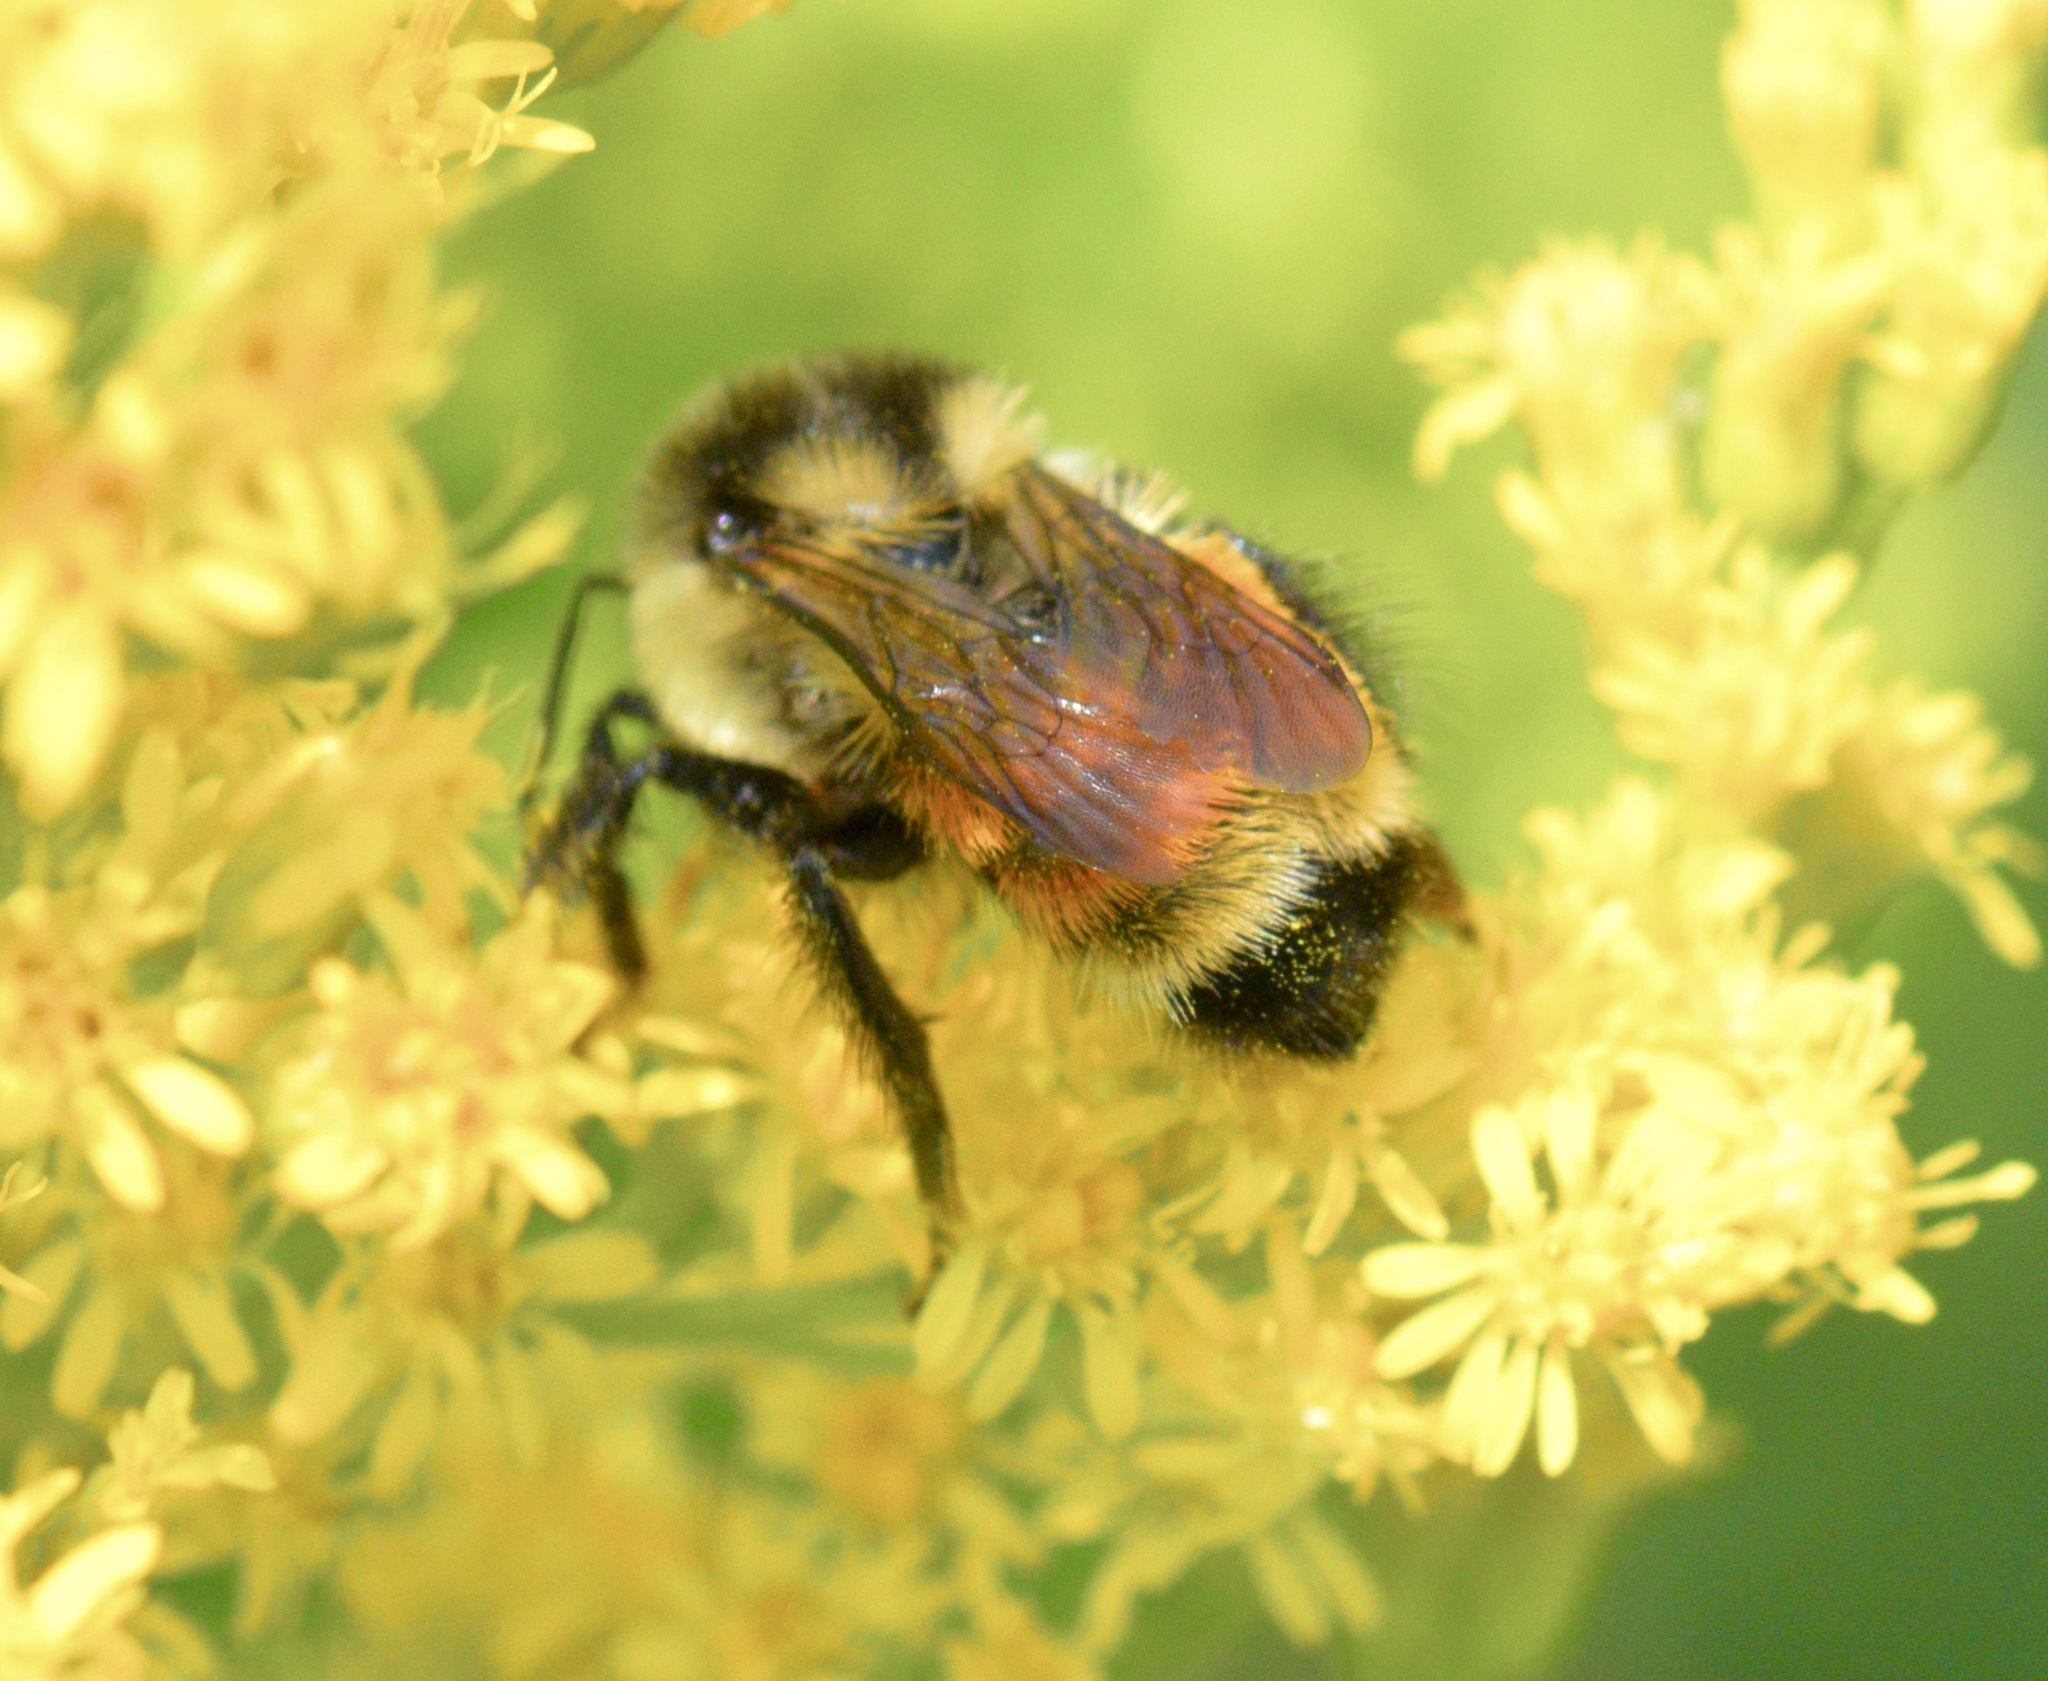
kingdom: Animalia
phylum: Arthropoda
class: Insecta
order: Hymenoptera
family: Apidae
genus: Bombus
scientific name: Bombus ternarius
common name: Tri-colored bumble bee
